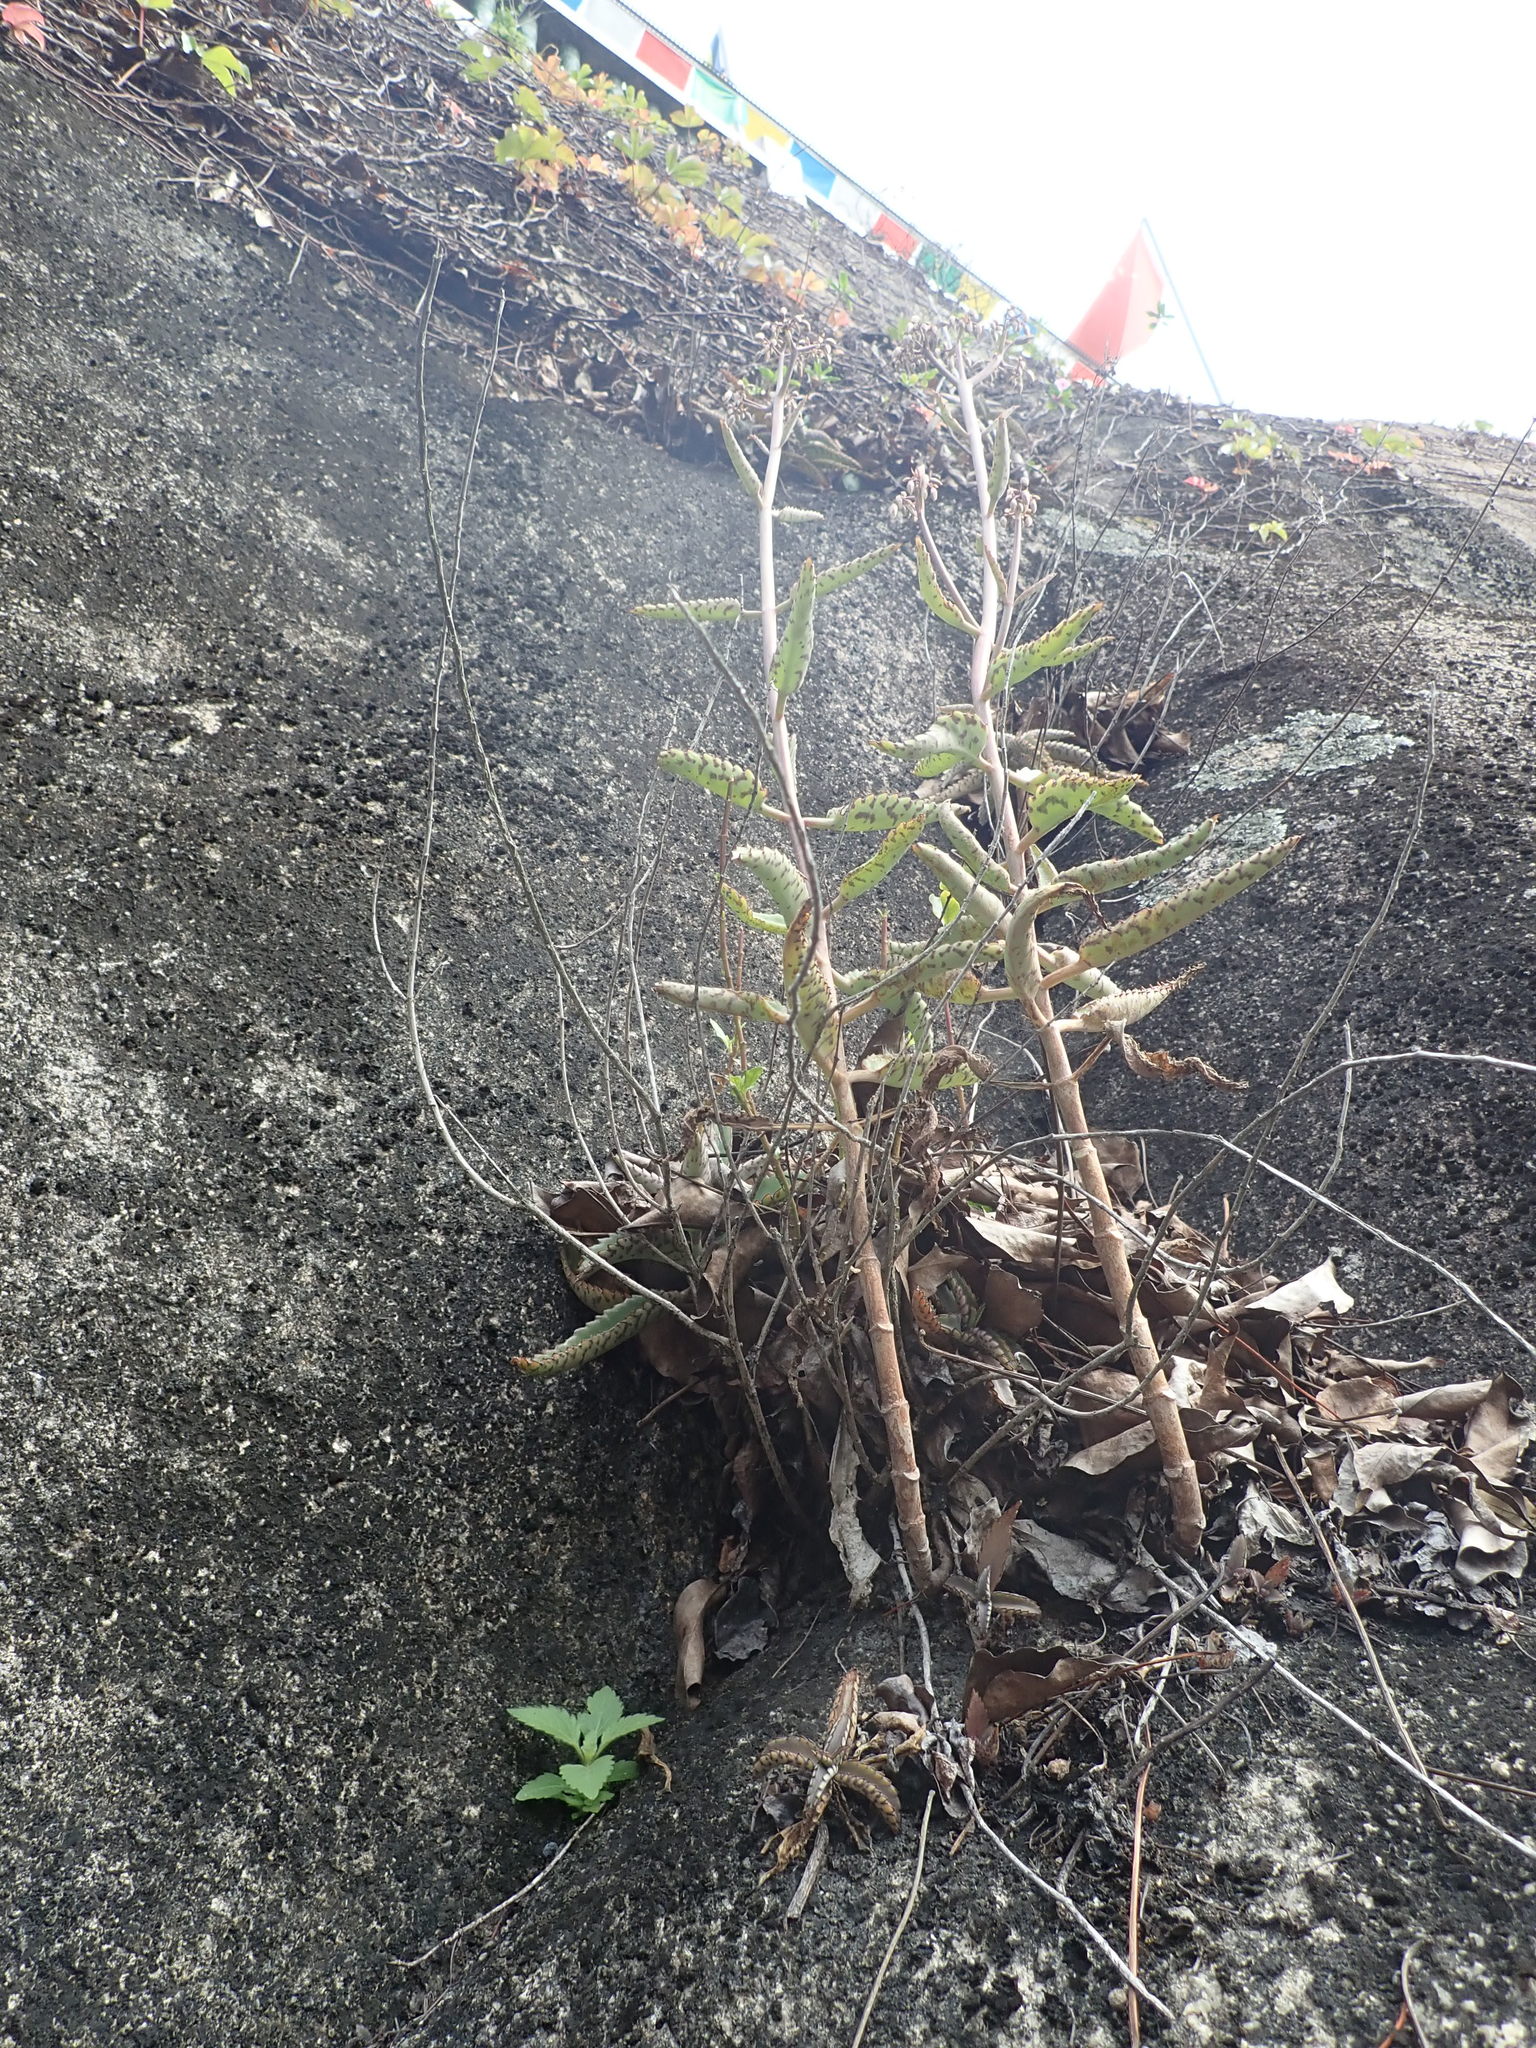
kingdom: Plantae
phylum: Tracheophyta
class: Magnoliopsida
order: Saxifragales
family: Crassulaceae
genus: Kalanchoe
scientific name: Kalanchoe daigremontiana
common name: Devil's backbone
